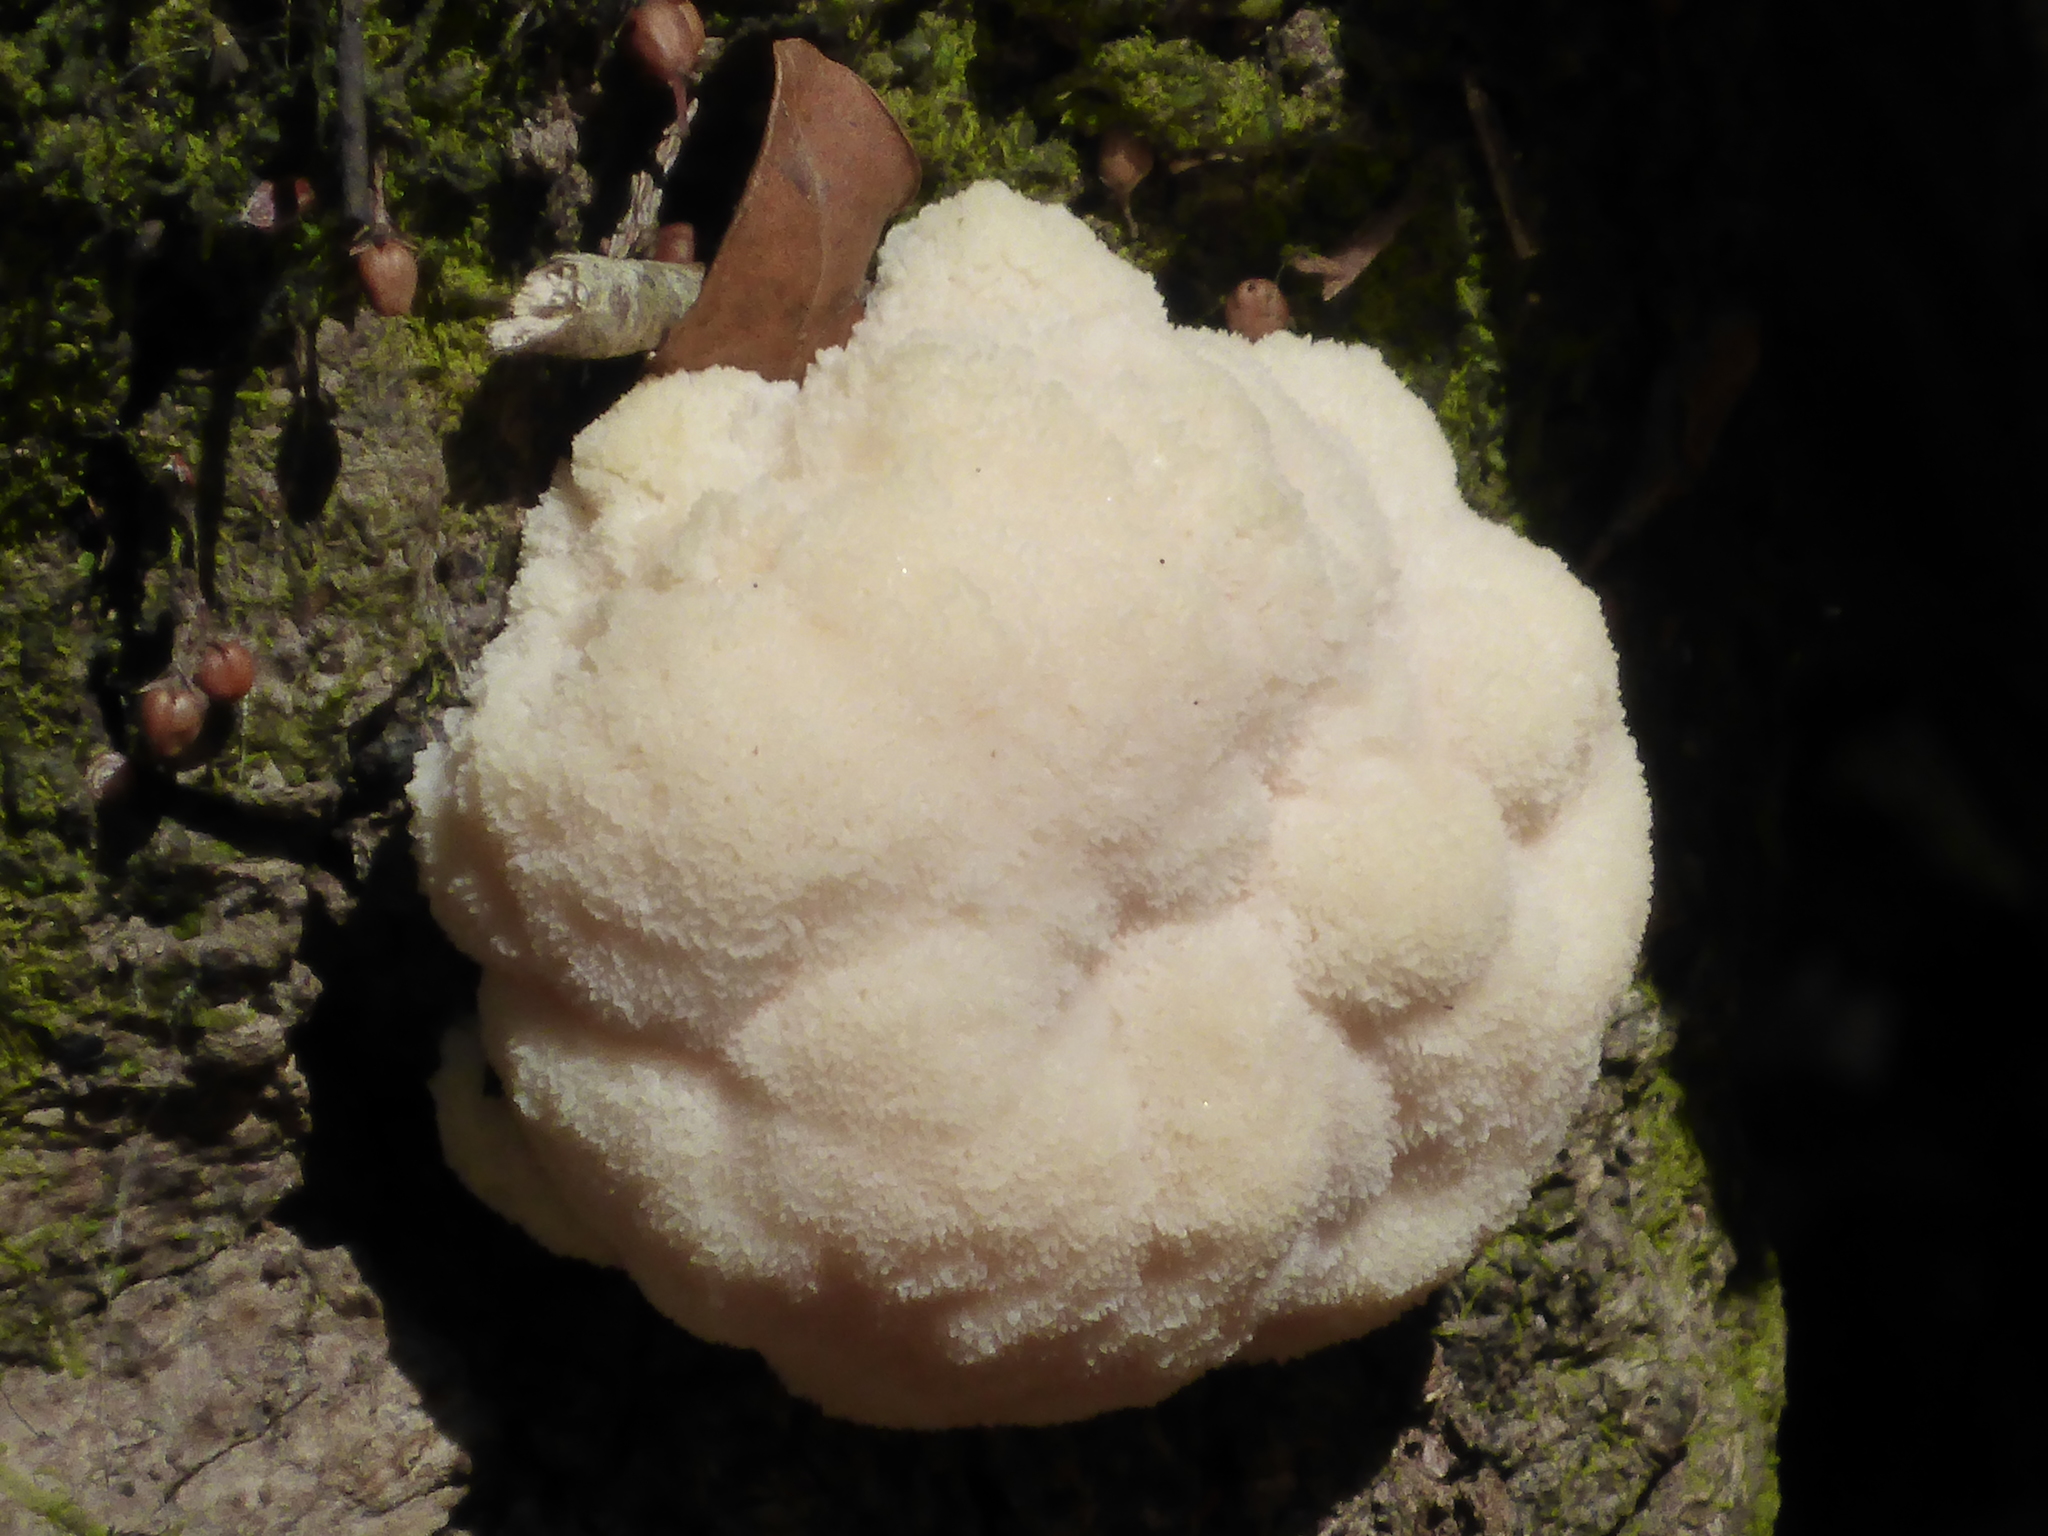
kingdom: Fungi
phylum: Basidiomycota
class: Agaricomycetes
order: Russulales
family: Hericiaceae
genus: Hericium
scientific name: Hericium erinaceus
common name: Bearded tooth
